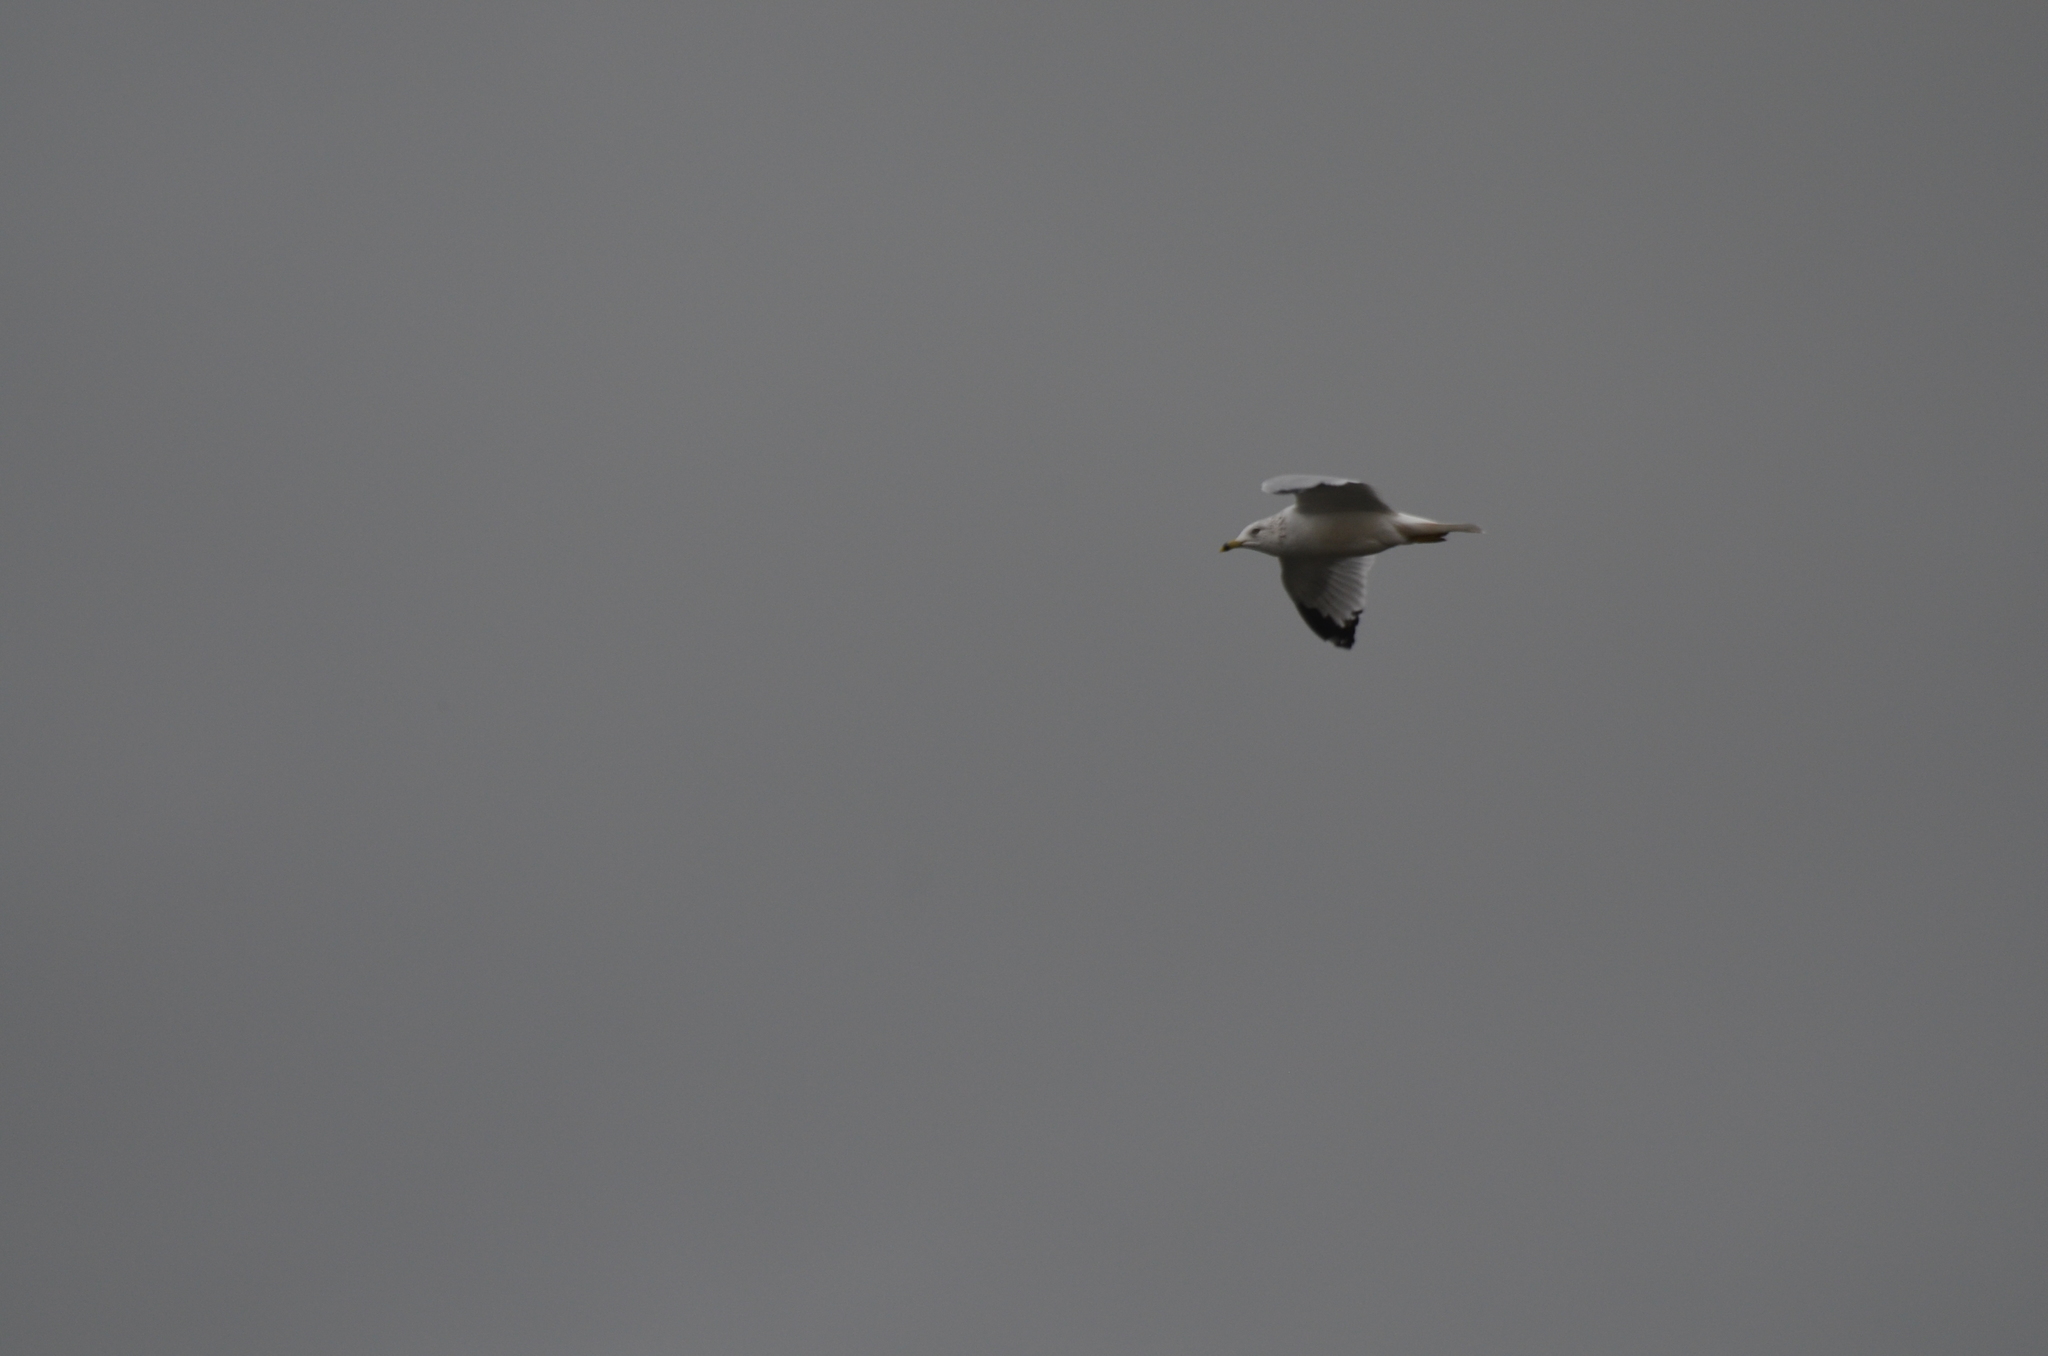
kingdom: Animalia
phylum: Chordata
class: Aves
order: Charadriiformes
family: Laridae
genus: Larus
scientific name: Larus delawarensis
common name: Ring-billed gull
